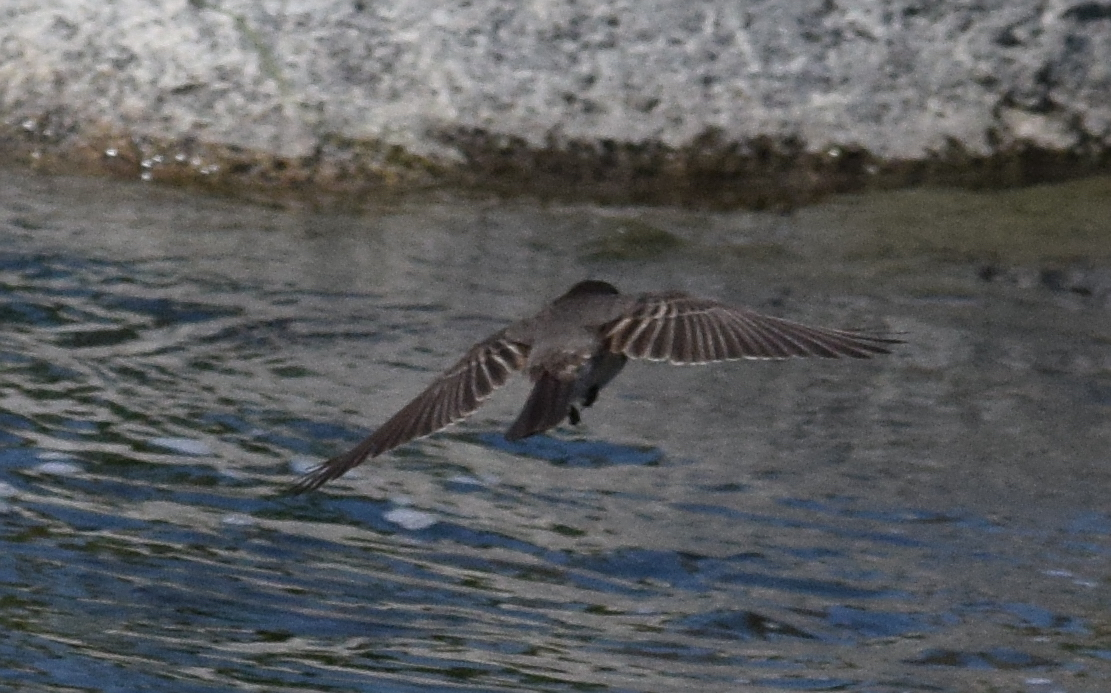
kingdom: Animalia
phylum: Chordata
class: Aves
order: Passeriformes
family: Tyrannidae
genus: Sayornis
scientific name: Sayornis nigricans
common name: Black phoebe
